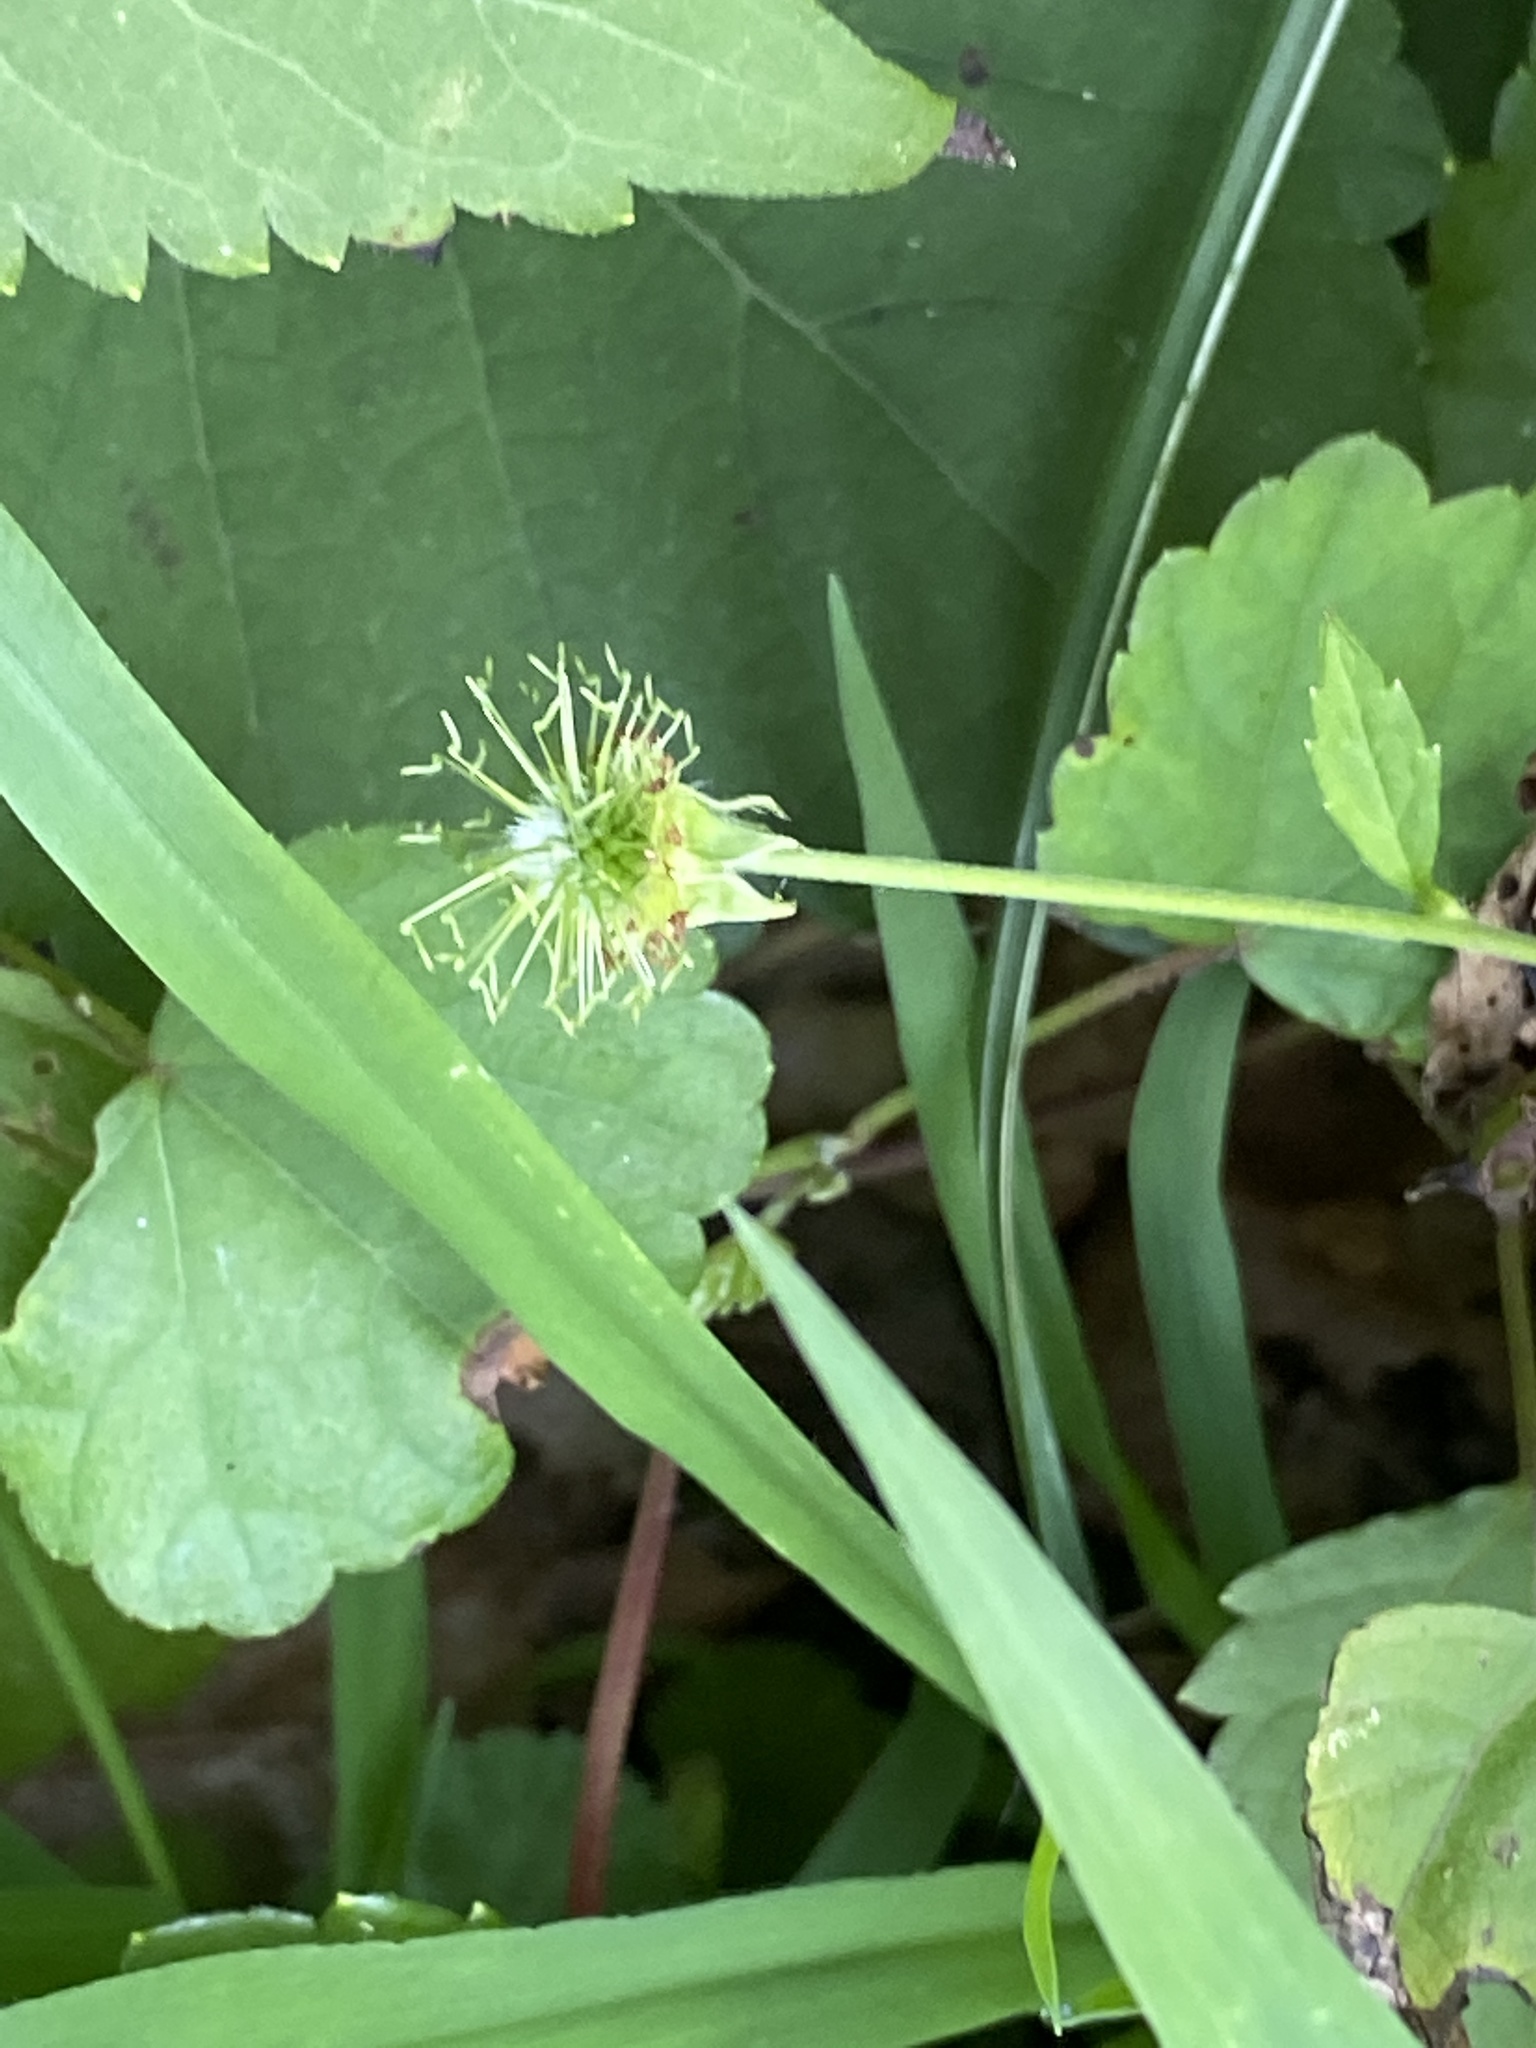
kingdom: Plantae
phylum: Tracheophyta
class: Magnoliopsida
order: Rosales
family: Rosaceae
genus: Geum
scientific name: Geum canadense
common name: White avens
